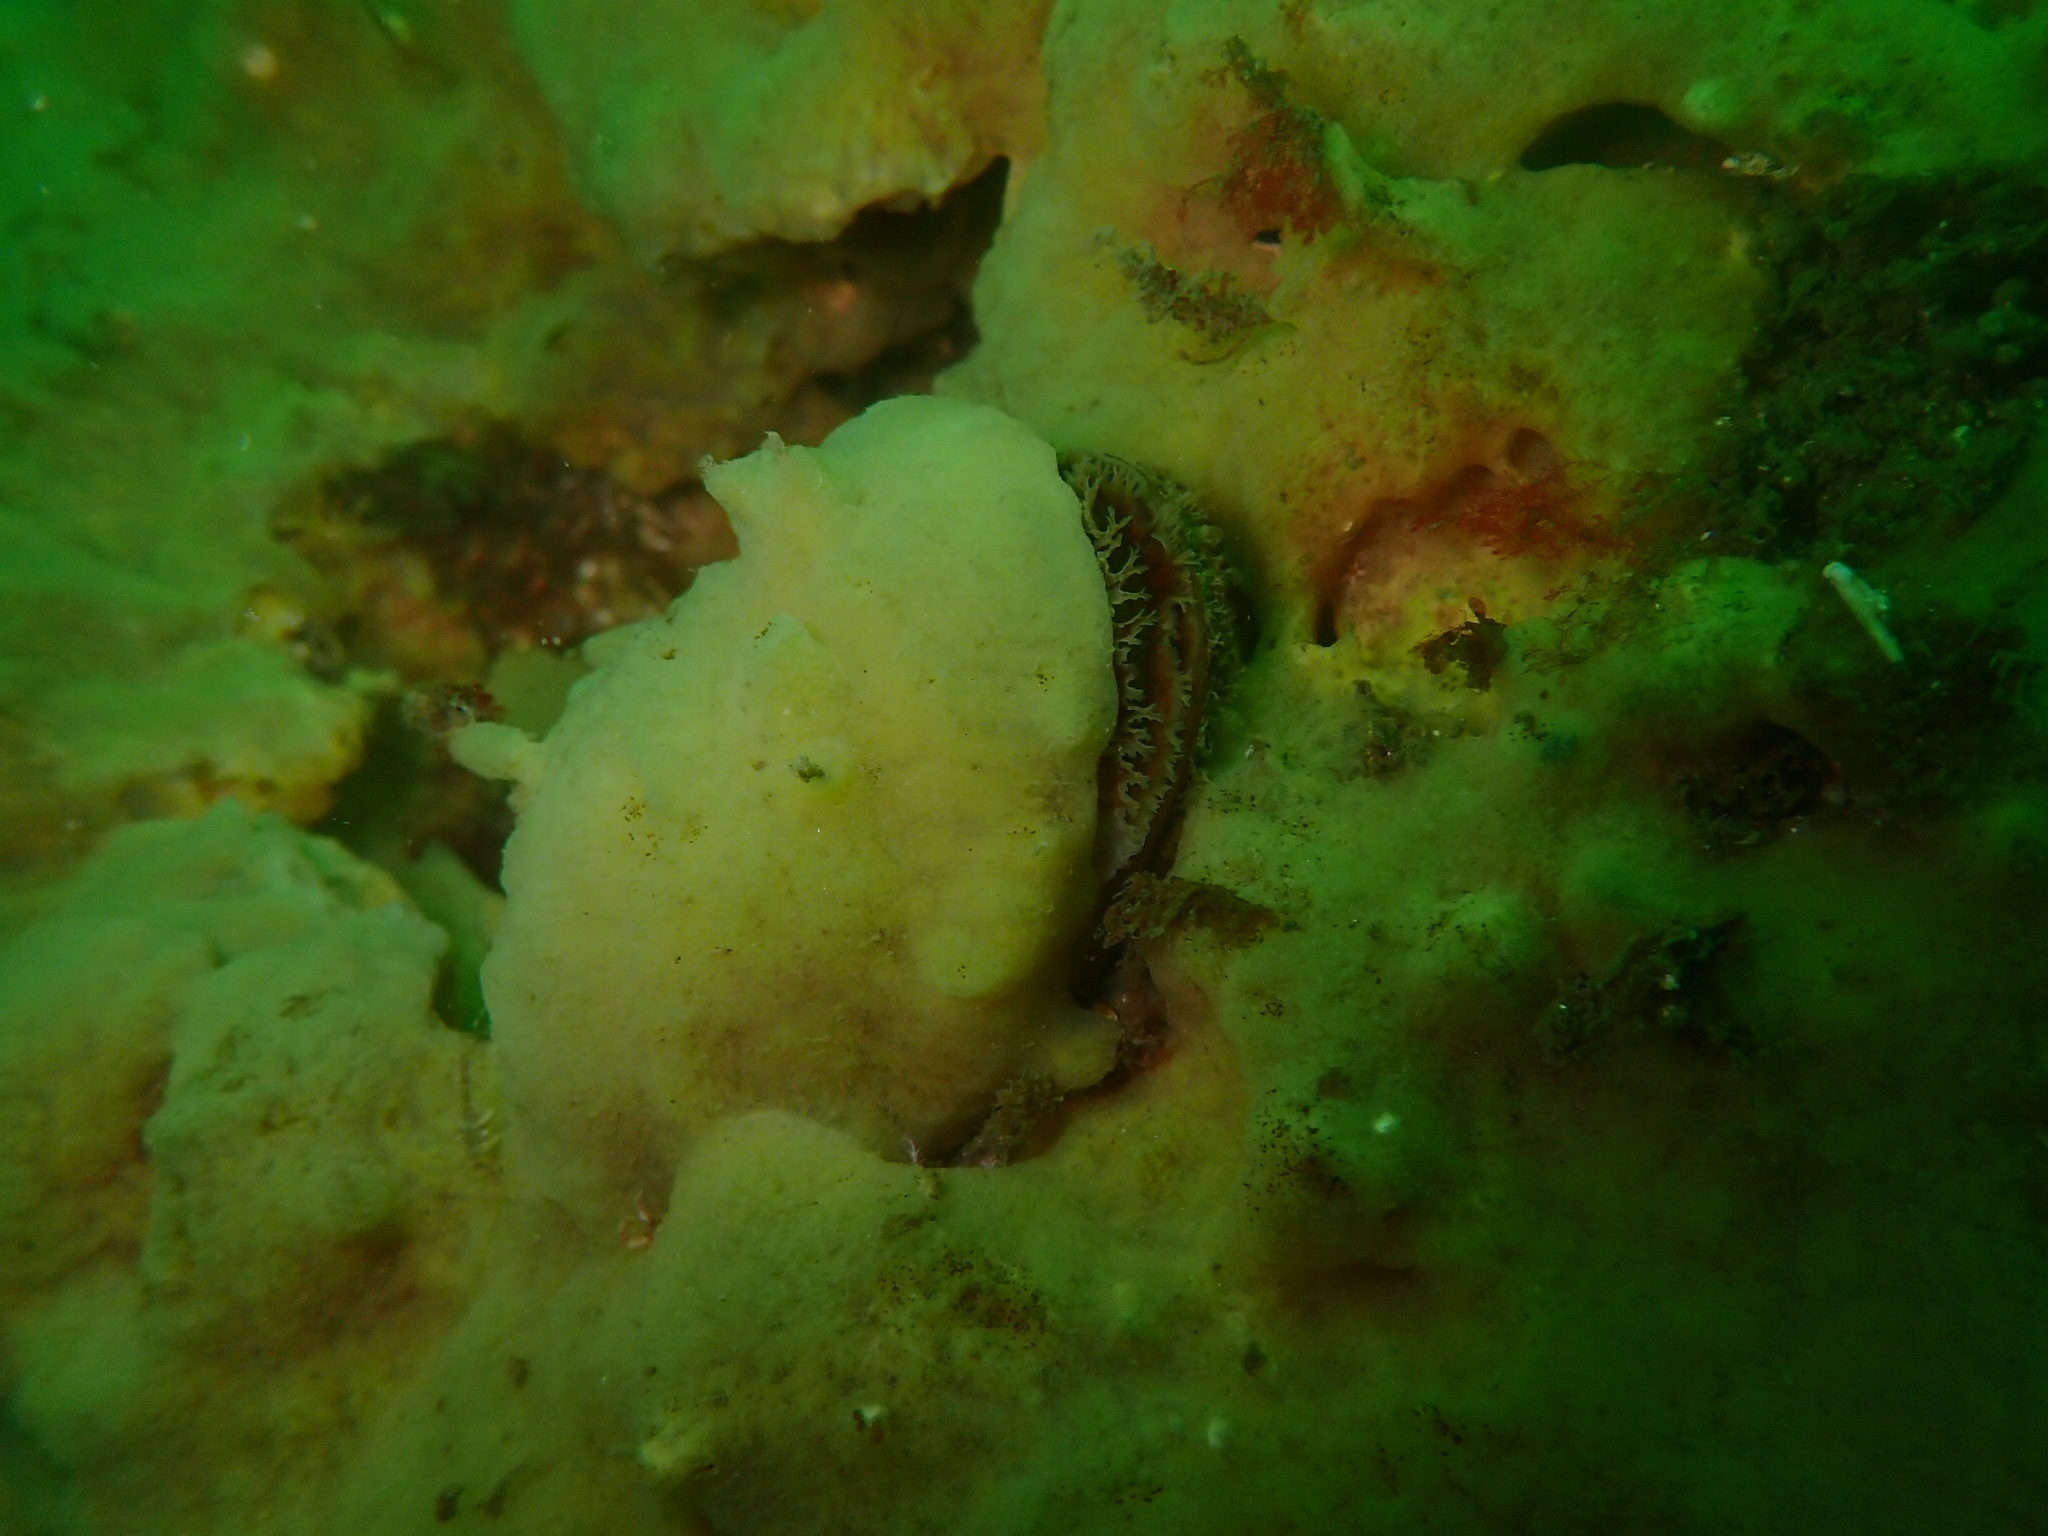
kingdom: Animalia
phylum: Mollusca
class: Bivalvia
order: Mytilida
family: Mytilidae
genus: Mytilus
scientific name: Mytilus
